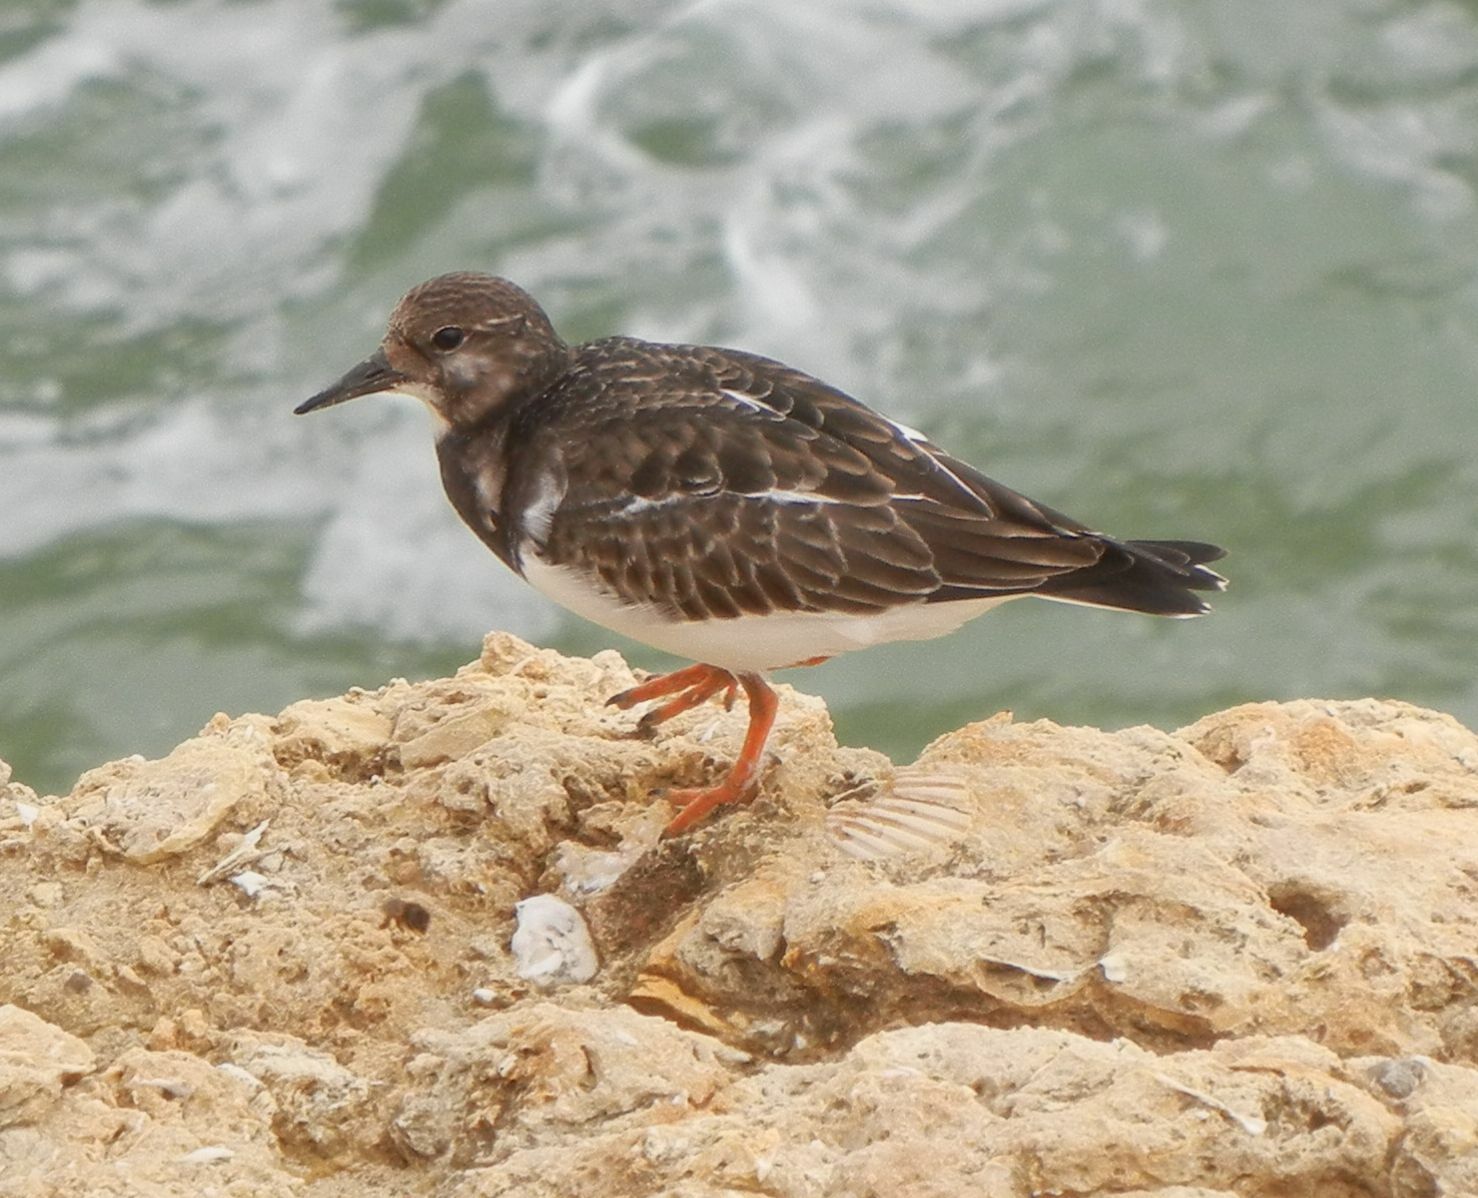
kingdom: Animalia
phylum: Chordata
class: Aves
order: Charadriiformes
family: Scolopacidae
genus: Arenaria
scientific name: Arenaria interpres
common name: Ruddy turnstone
